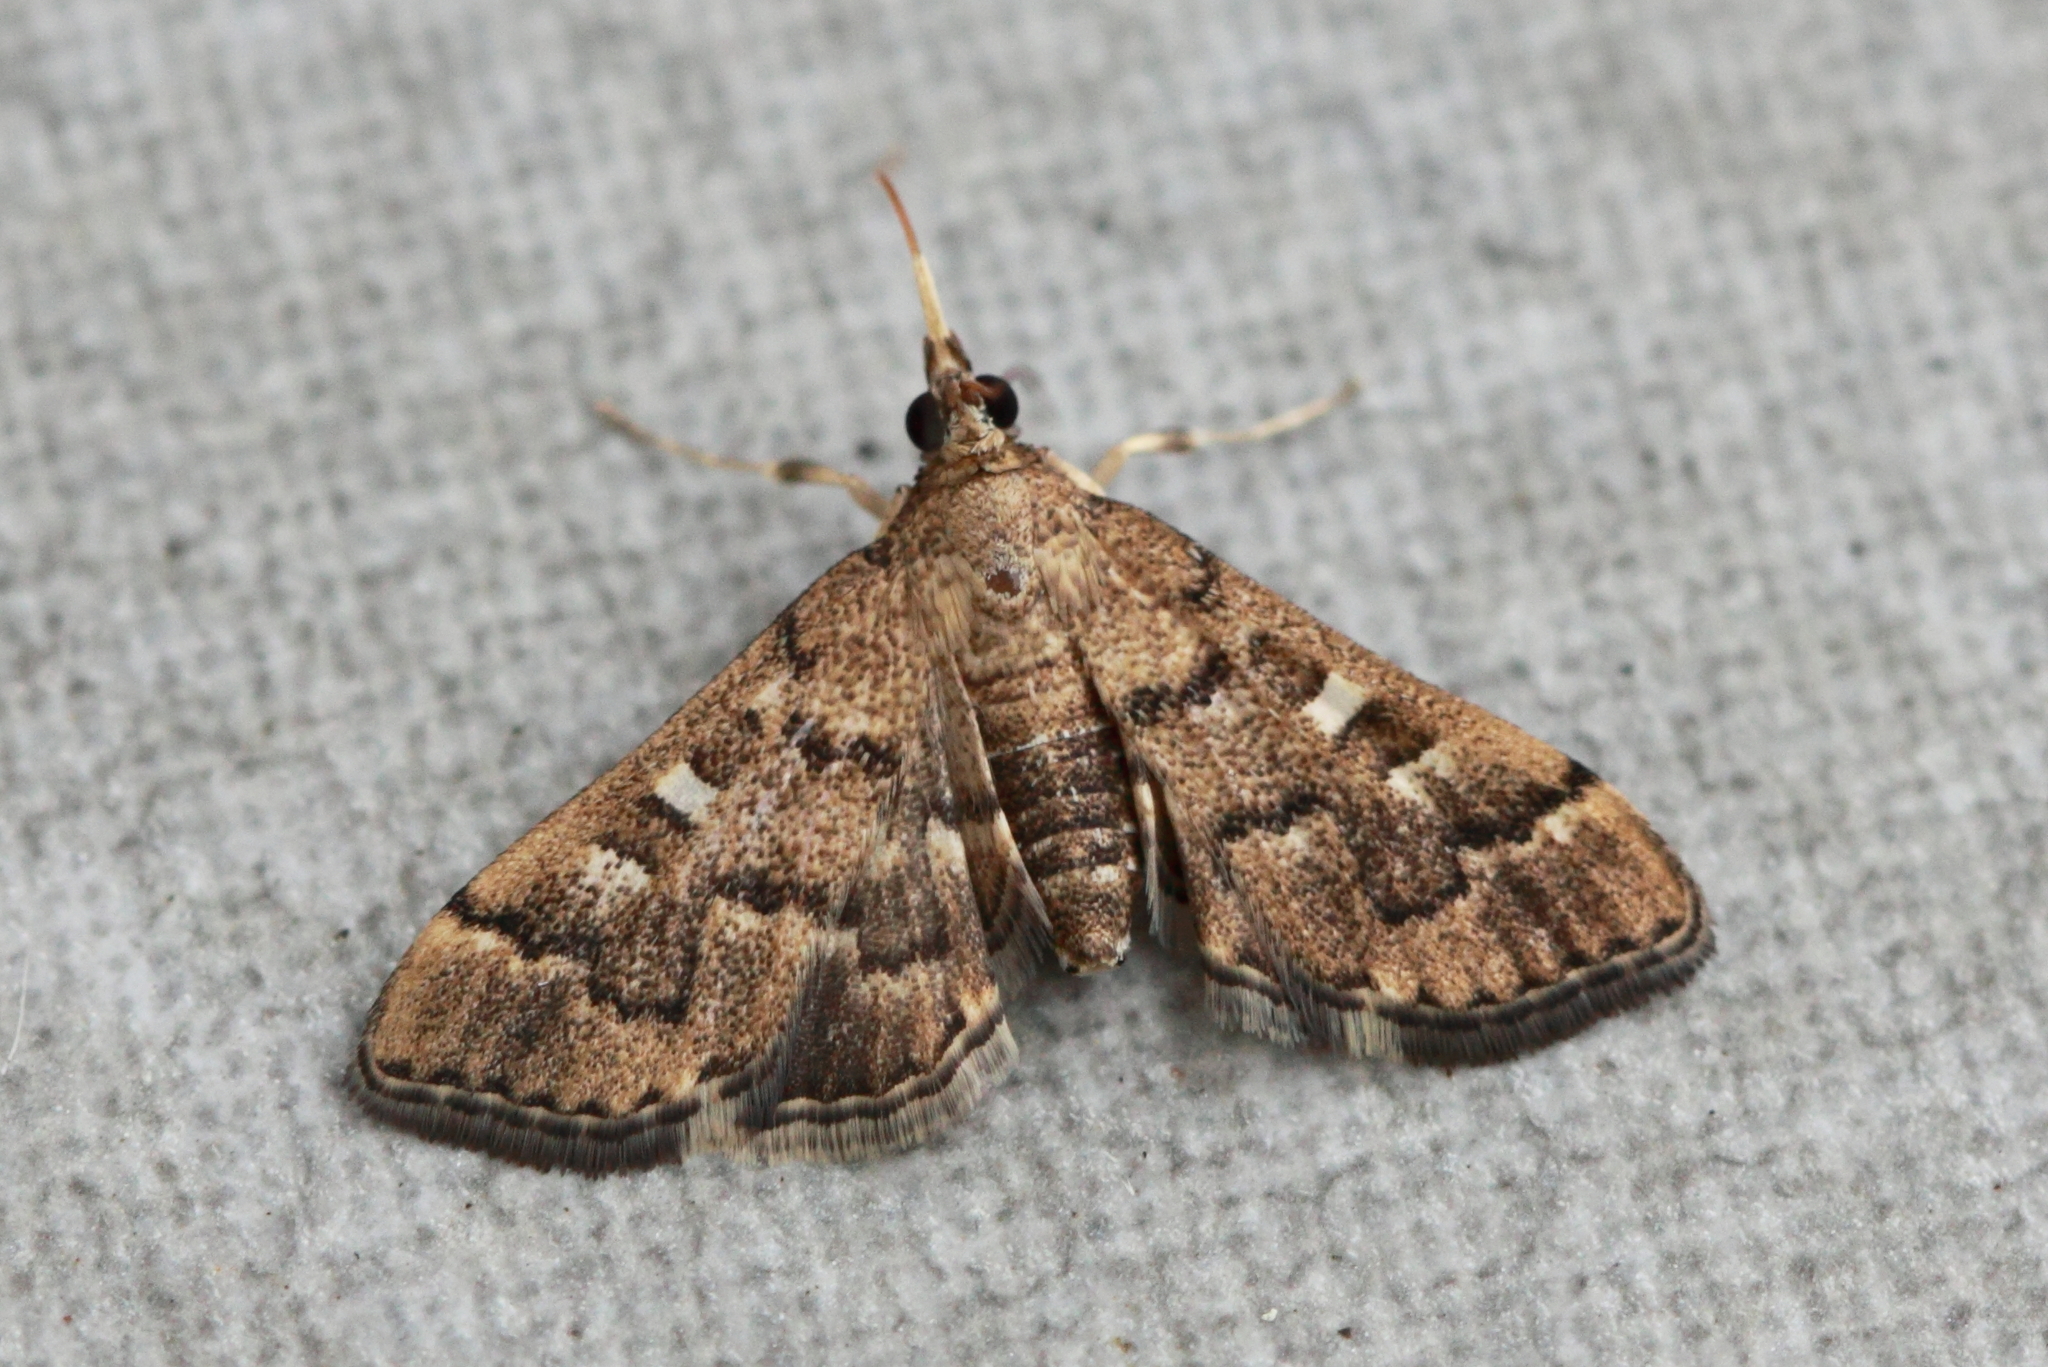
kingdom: Animalia
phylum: Arthropoda
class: Insecta
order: Lepidoptera
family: Crambidae
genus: Nacoleia
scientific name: Nacoleia rhoeoalis
